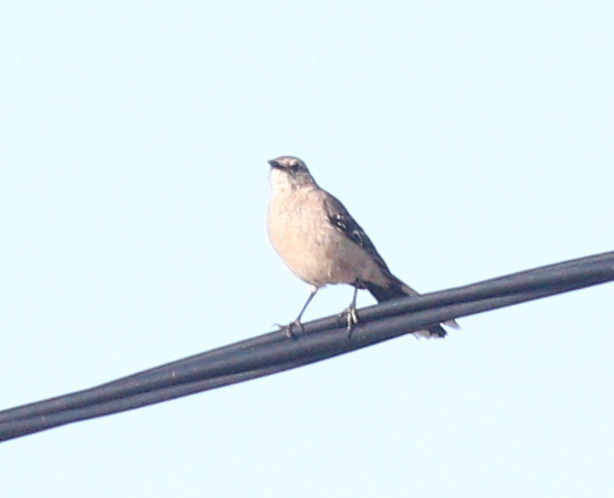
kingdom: Animalia
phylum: Chordata
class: Aves
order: Passeriformes
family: Mimidae
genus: Mimus
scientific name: Mimus patagonicus
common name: Patagonian mockingbird
